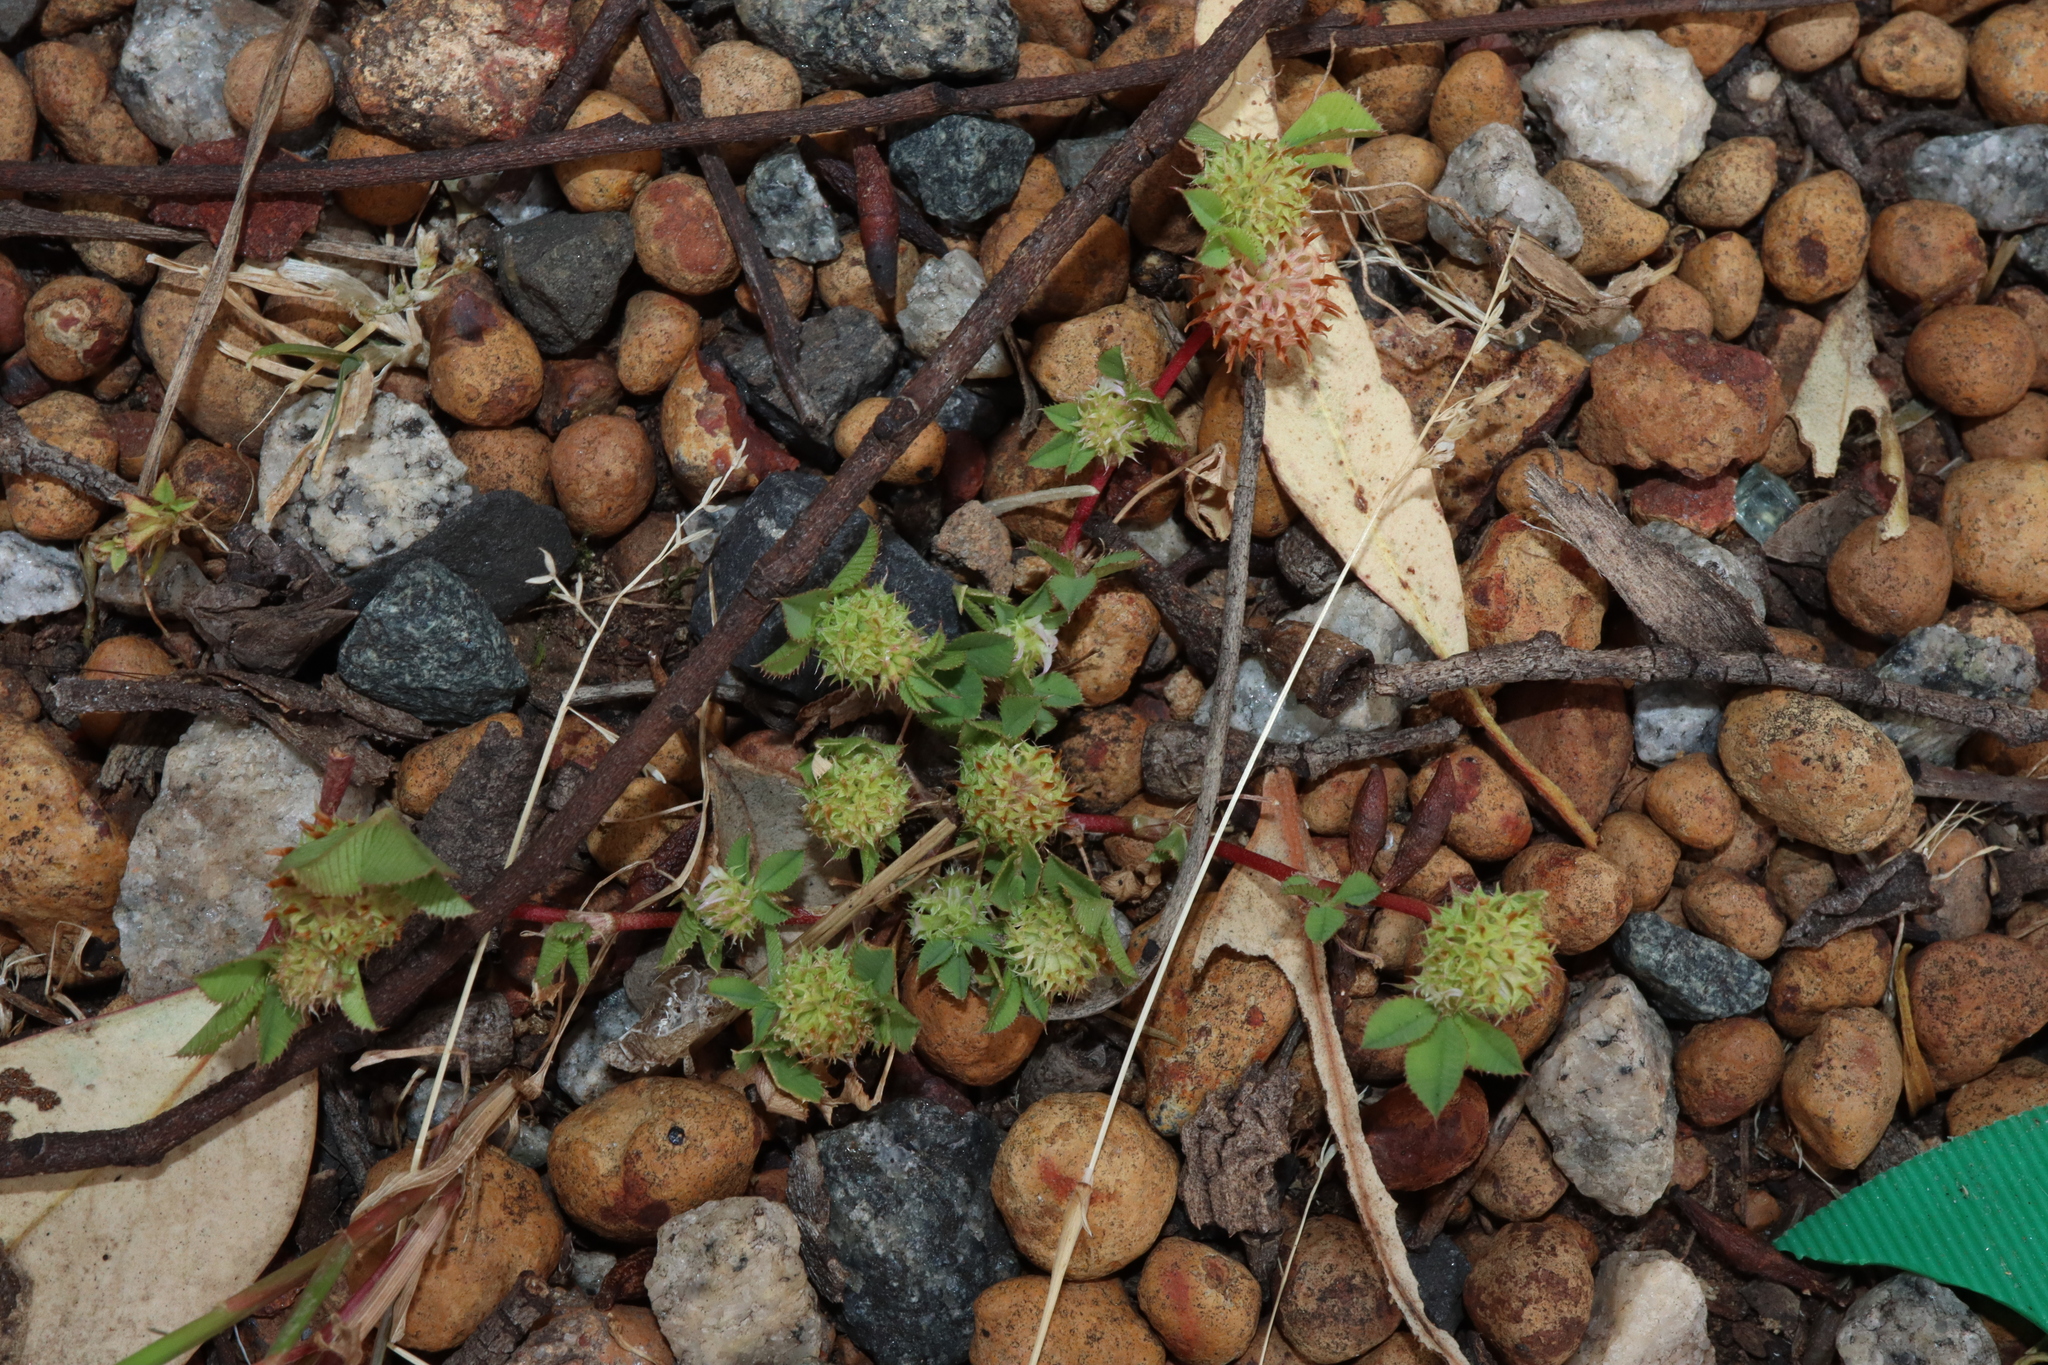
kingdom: Plantae
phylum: Tracheophyta
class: Magnoliopsida
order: Fabales
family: Fabaceae
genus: Trifolium
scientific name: Trifolium glomeratum
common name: Clustered clover
